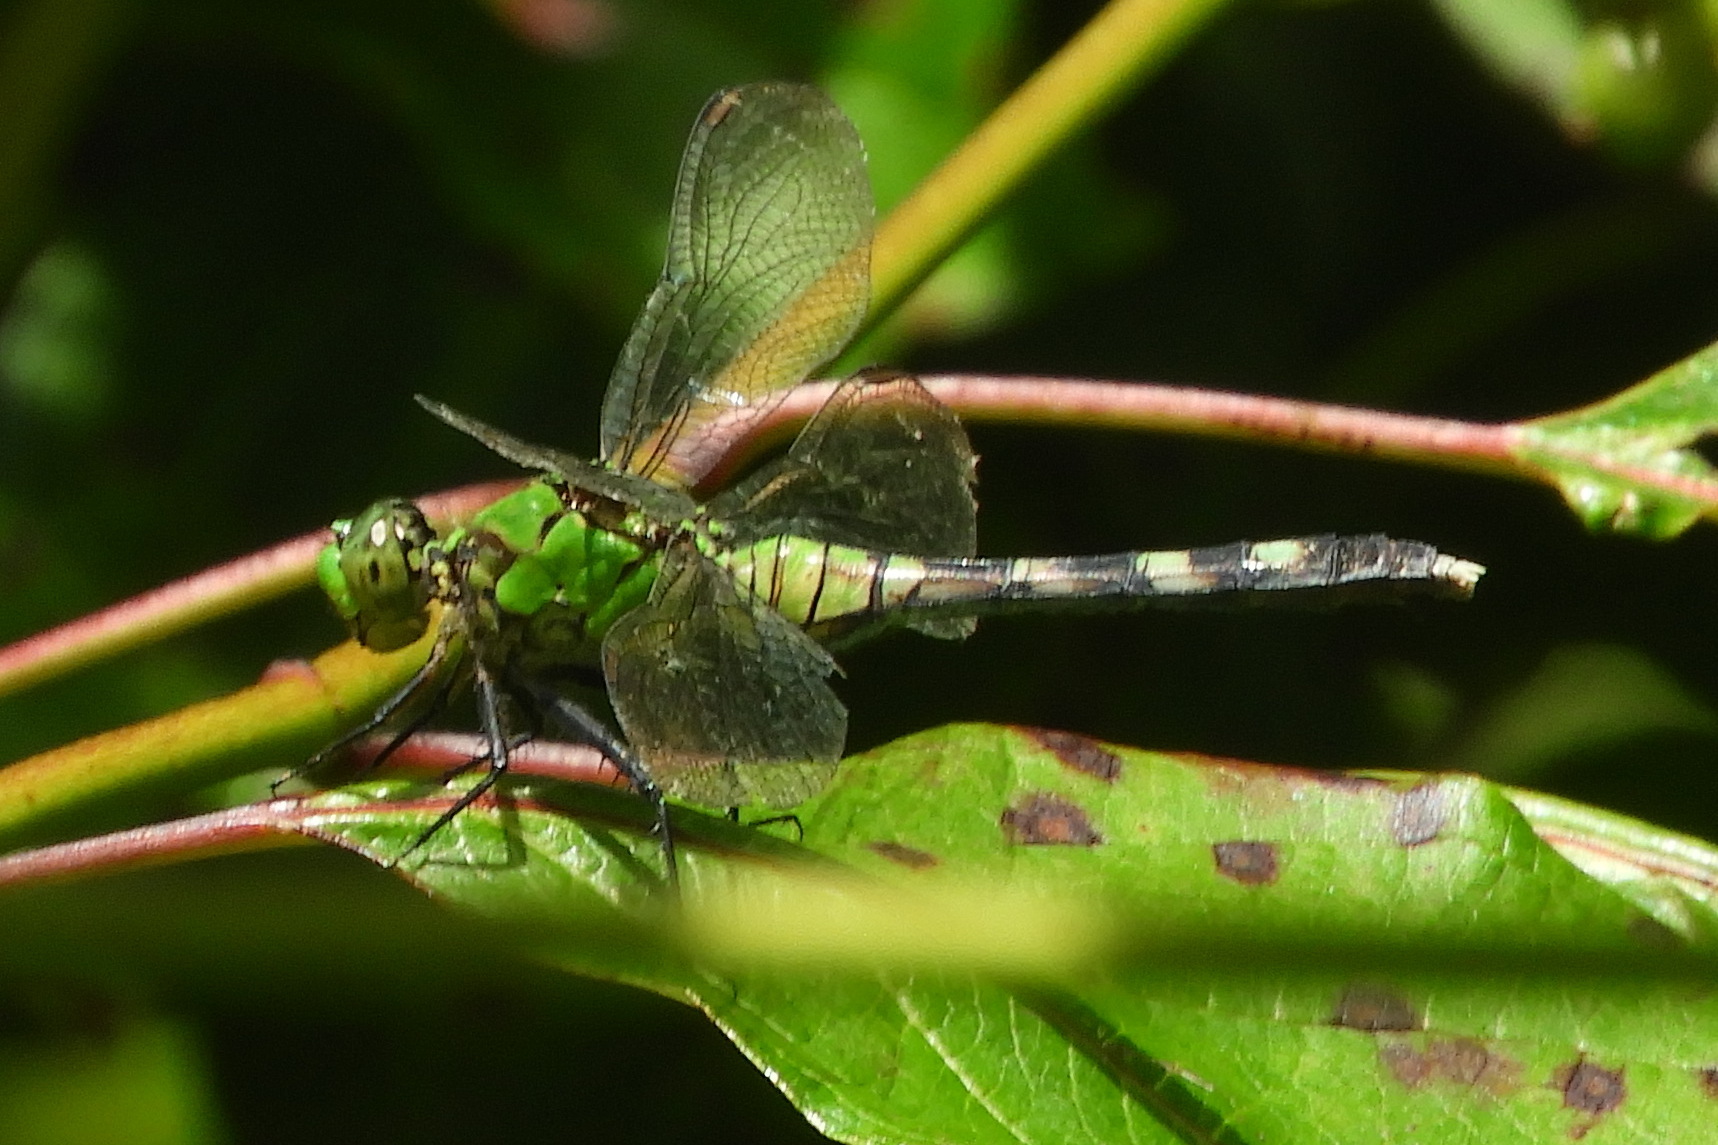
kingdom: Animalia
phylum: Arthropoda
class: Insecta
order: Odonata
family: Libellulidae
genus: Erythemis
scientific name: Erythemis simplicicollis
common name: Eastern pondhawk
